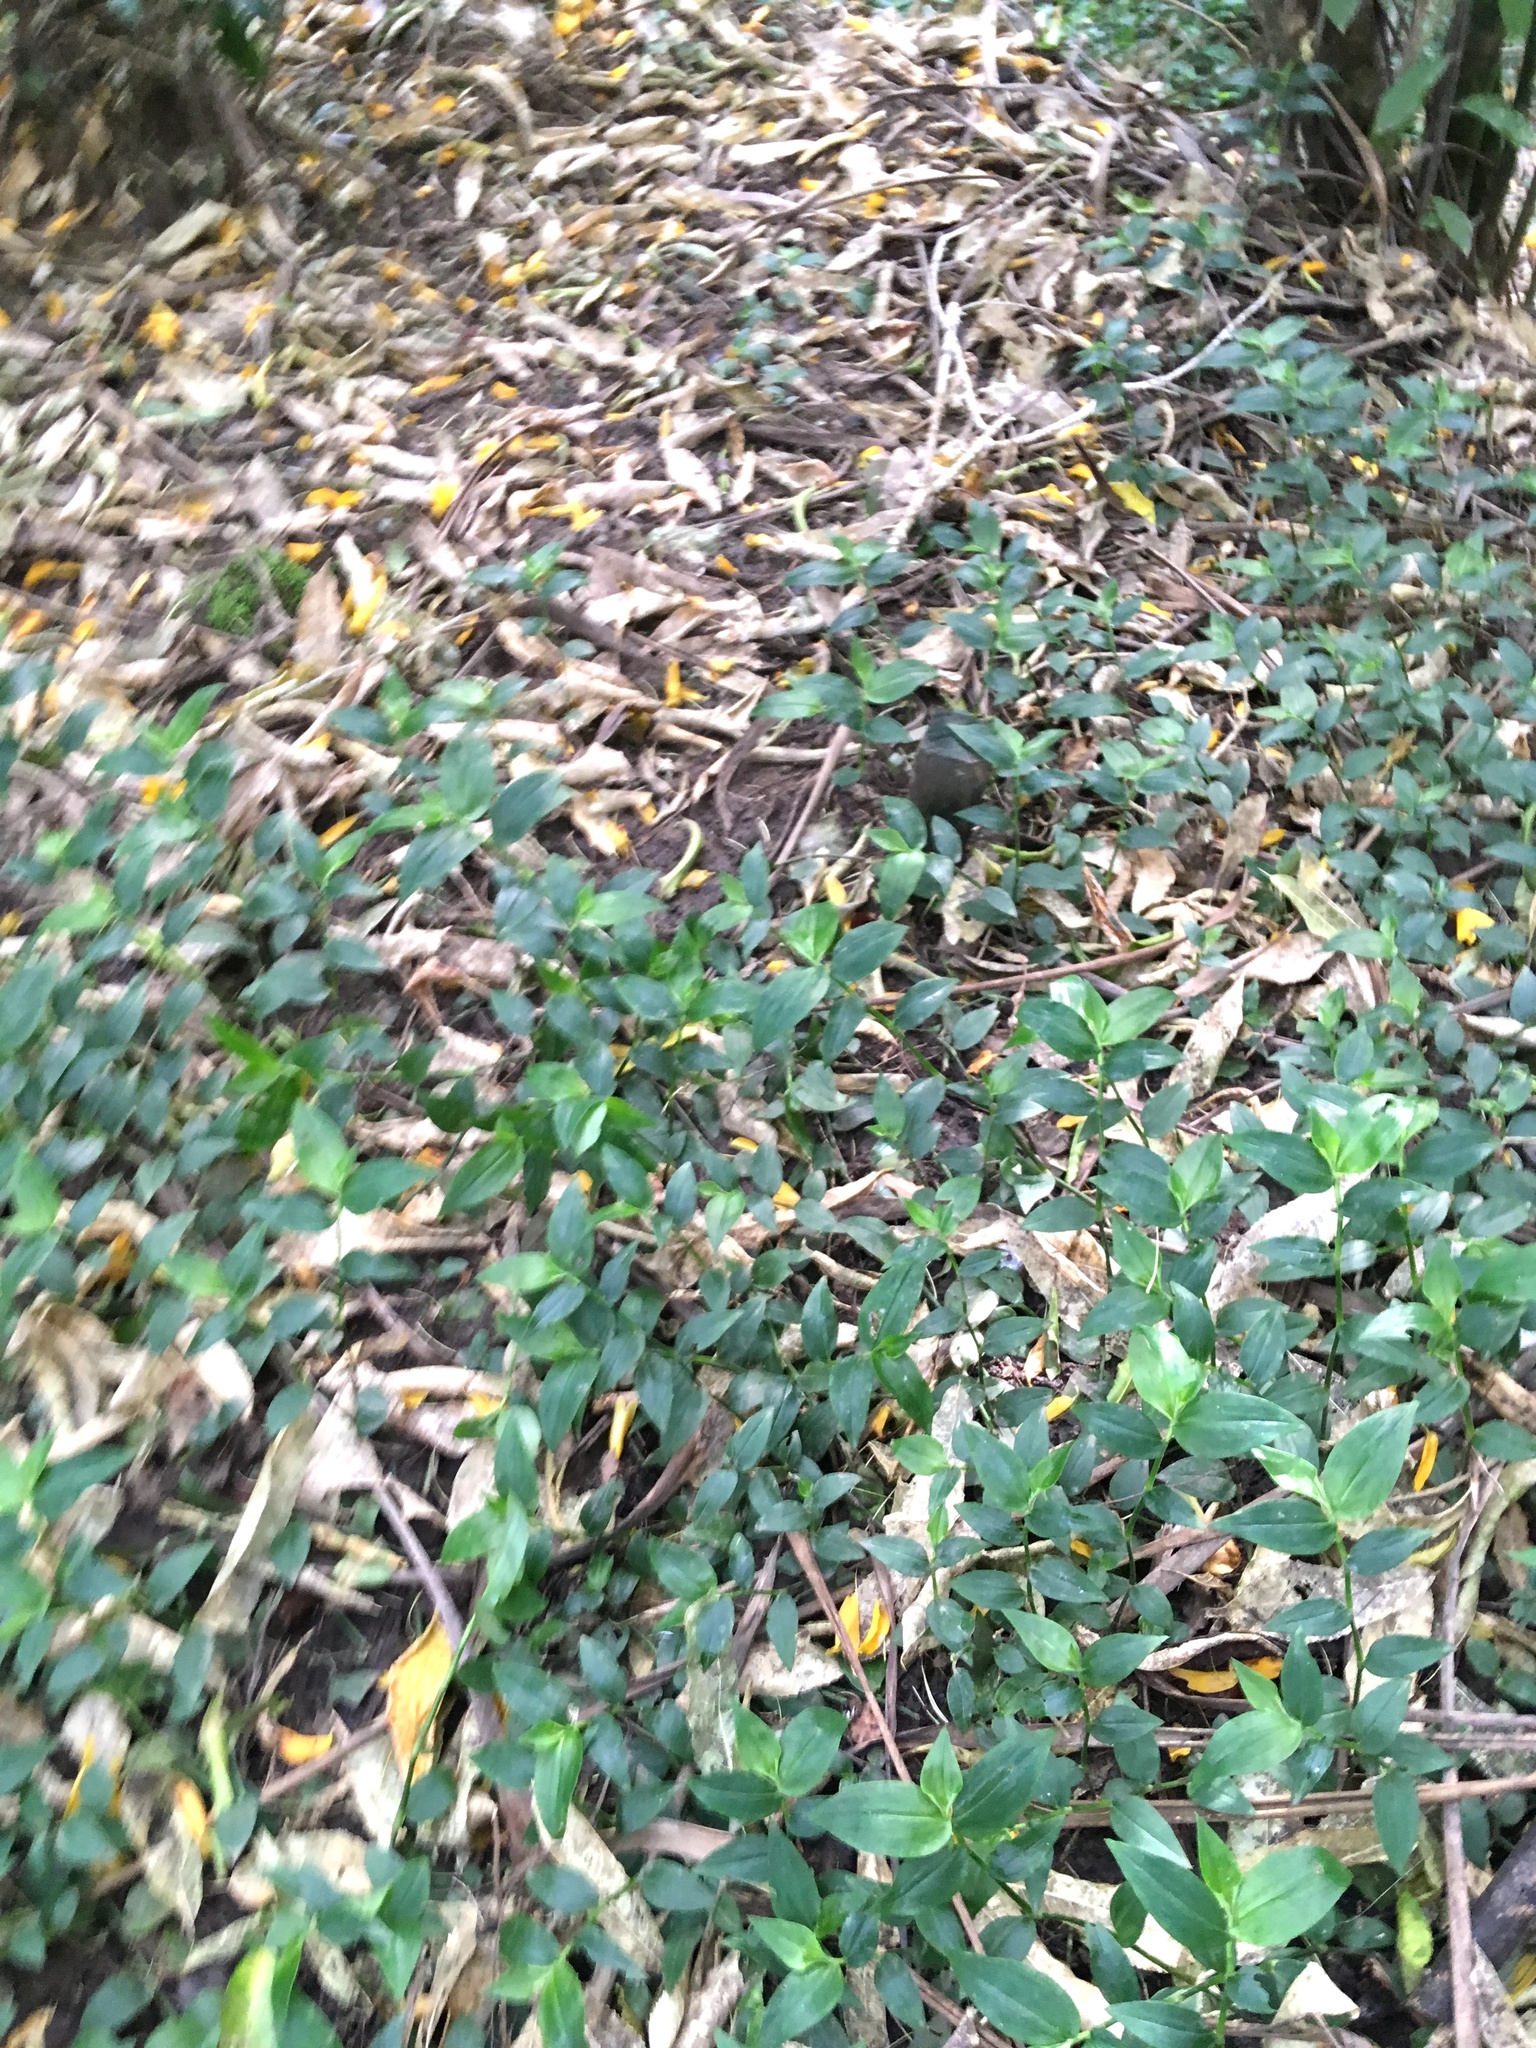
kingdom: Plantae
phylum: Tracheophyta
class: Liliopsida
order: Commelinales
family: Commelinaceae
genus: Tradescantia
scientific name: Tradescantia fluminensis
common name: Wandering-jew
